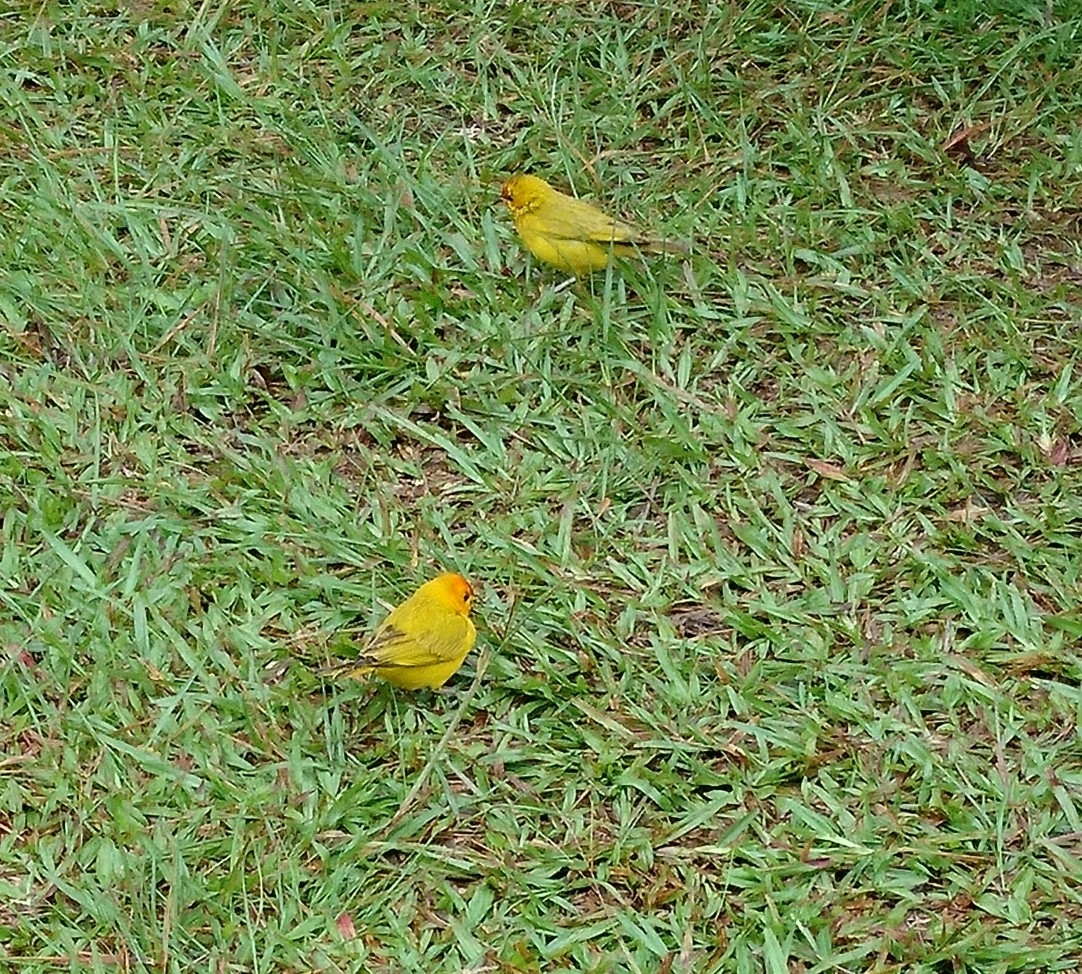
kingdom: Animalia
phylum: Chordata
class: Aves
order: Passeriformes
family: Thraupidae
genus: Sicalis
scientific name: Sicalis flaveola
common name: Saffron finch
